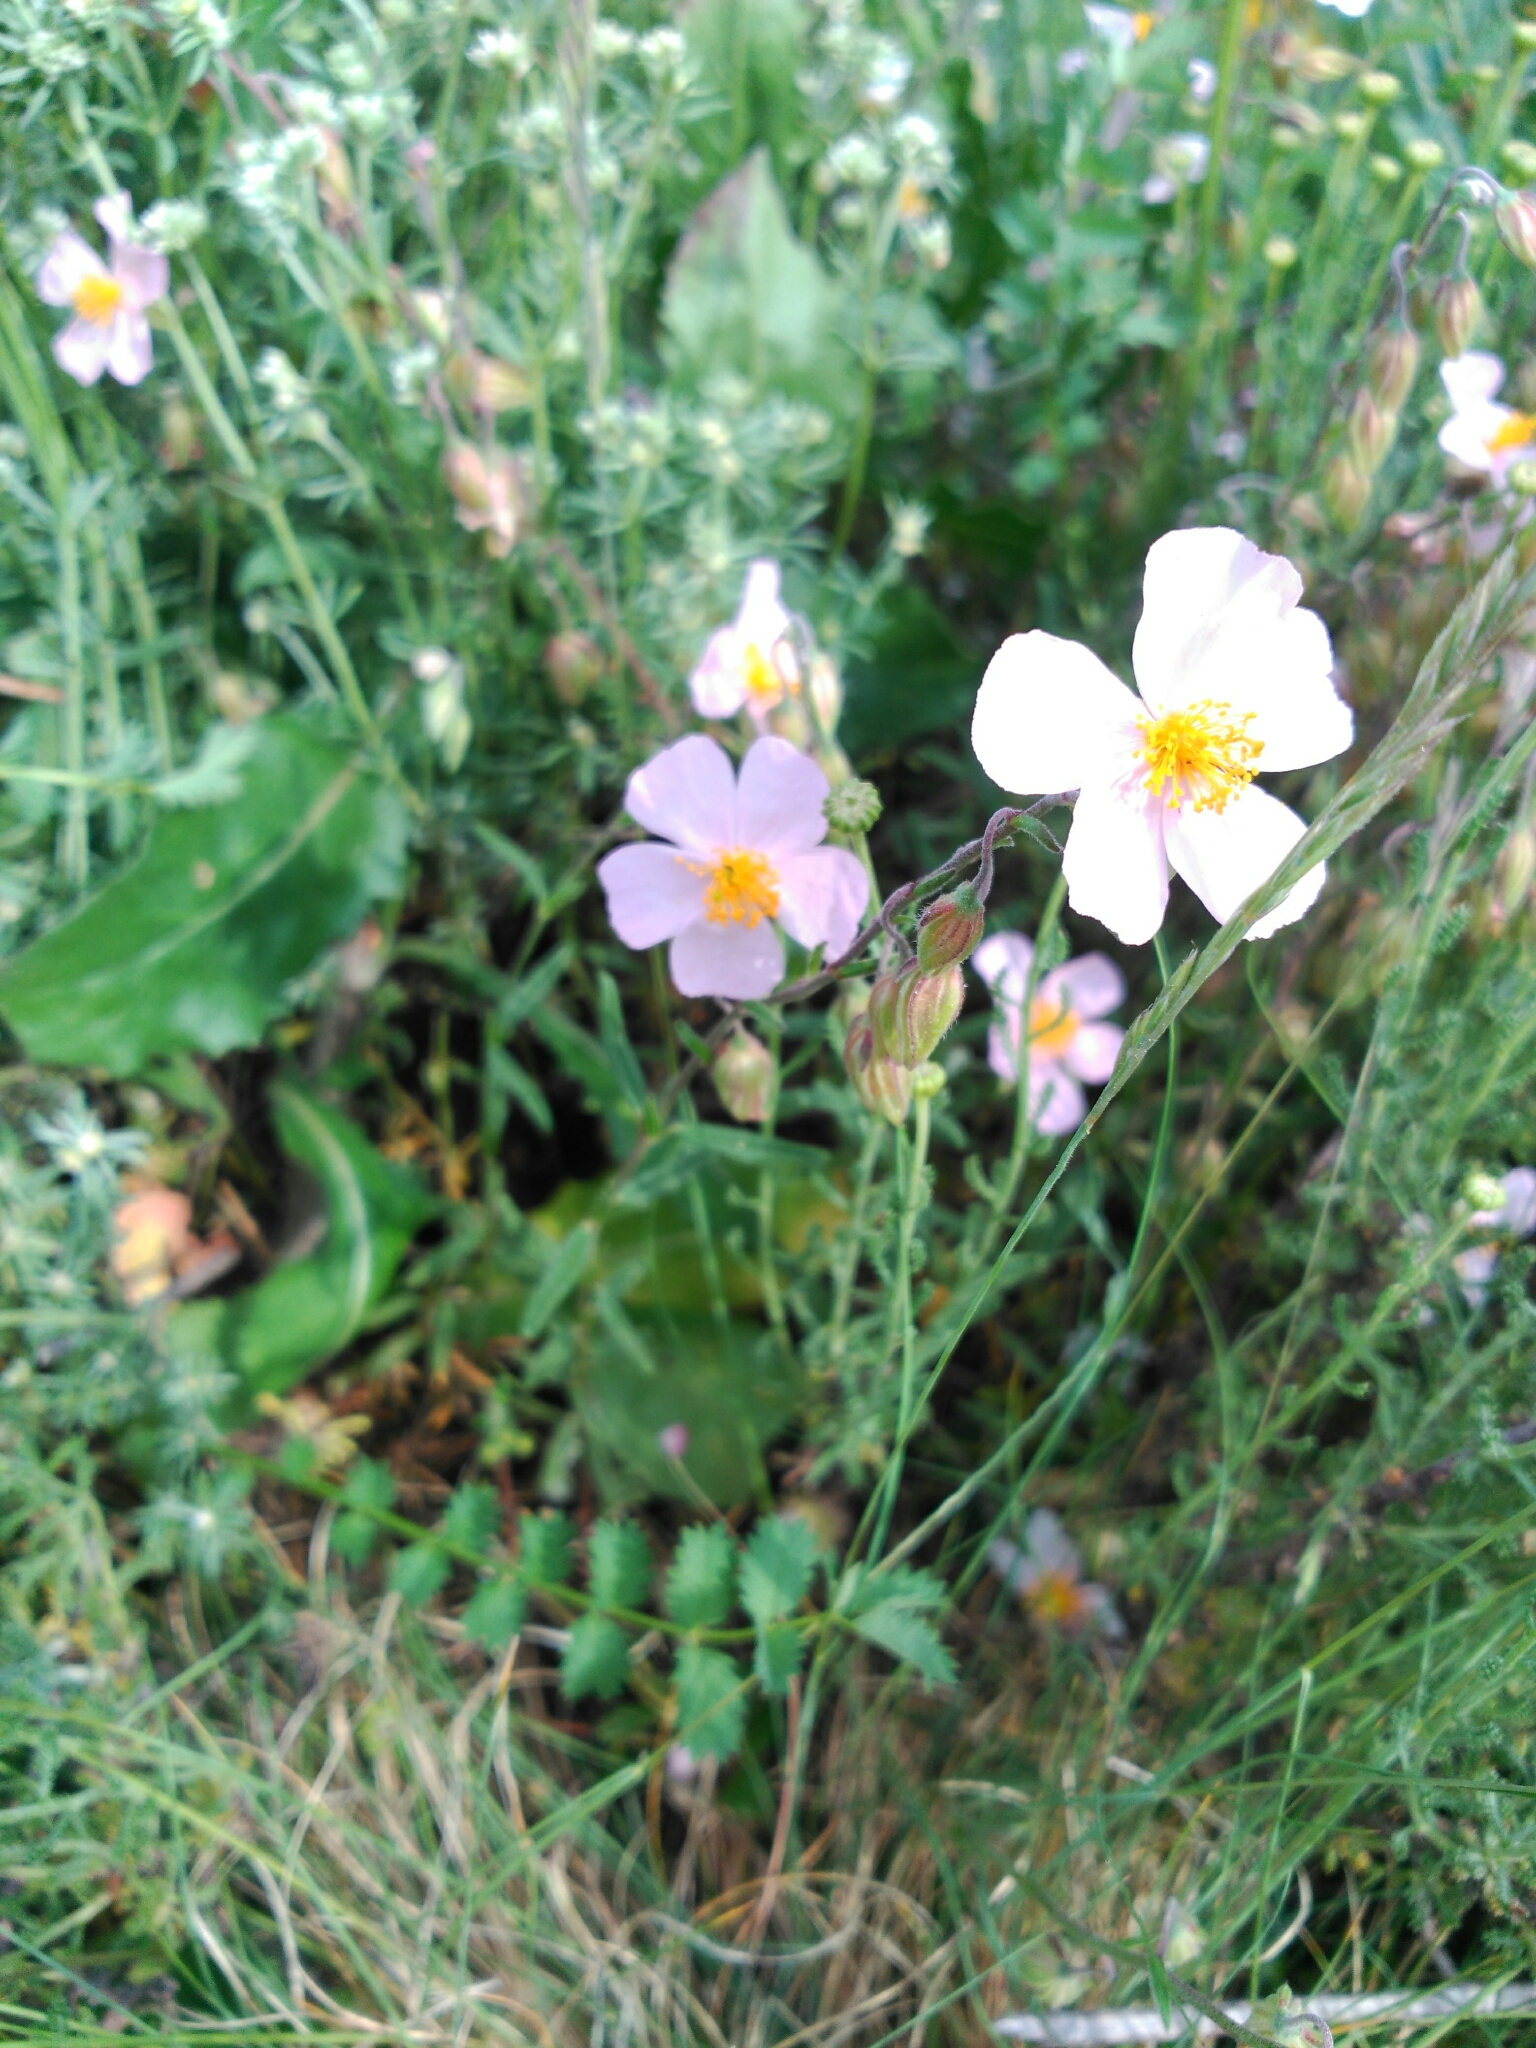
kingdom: Plantae
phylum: Tracheophyta
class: Magnoliopsida
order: Malvales
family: Cistaceae
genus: Helianthemum
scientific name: Helianthemum apenninum
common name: White rock-rose
